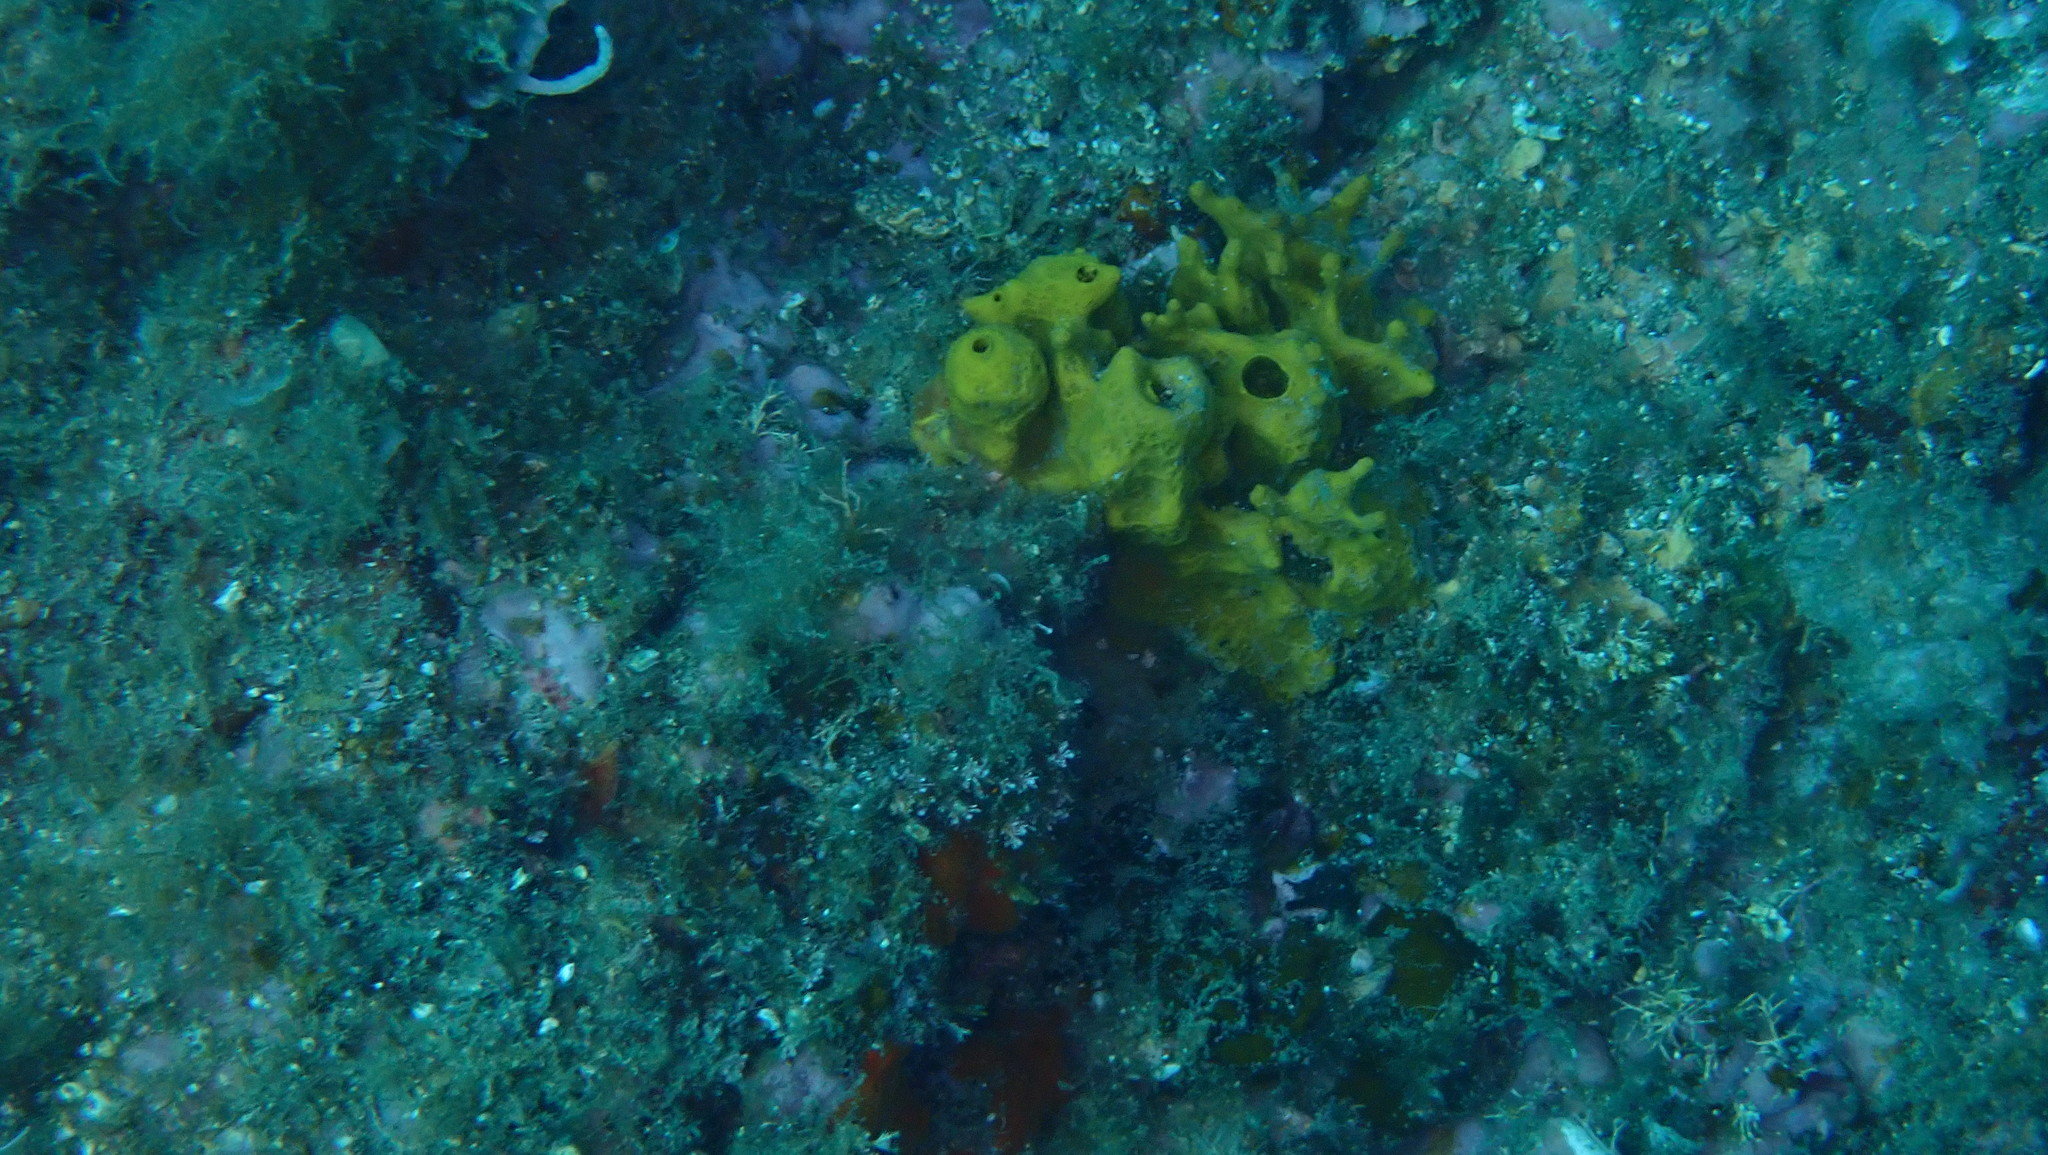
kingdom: Animalia
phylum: Porifera
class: Demospongiae
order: Verongiida
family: Aplysinidae
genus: Aplysina
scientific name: Aplysina aerophoba
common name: Aureate sponge
